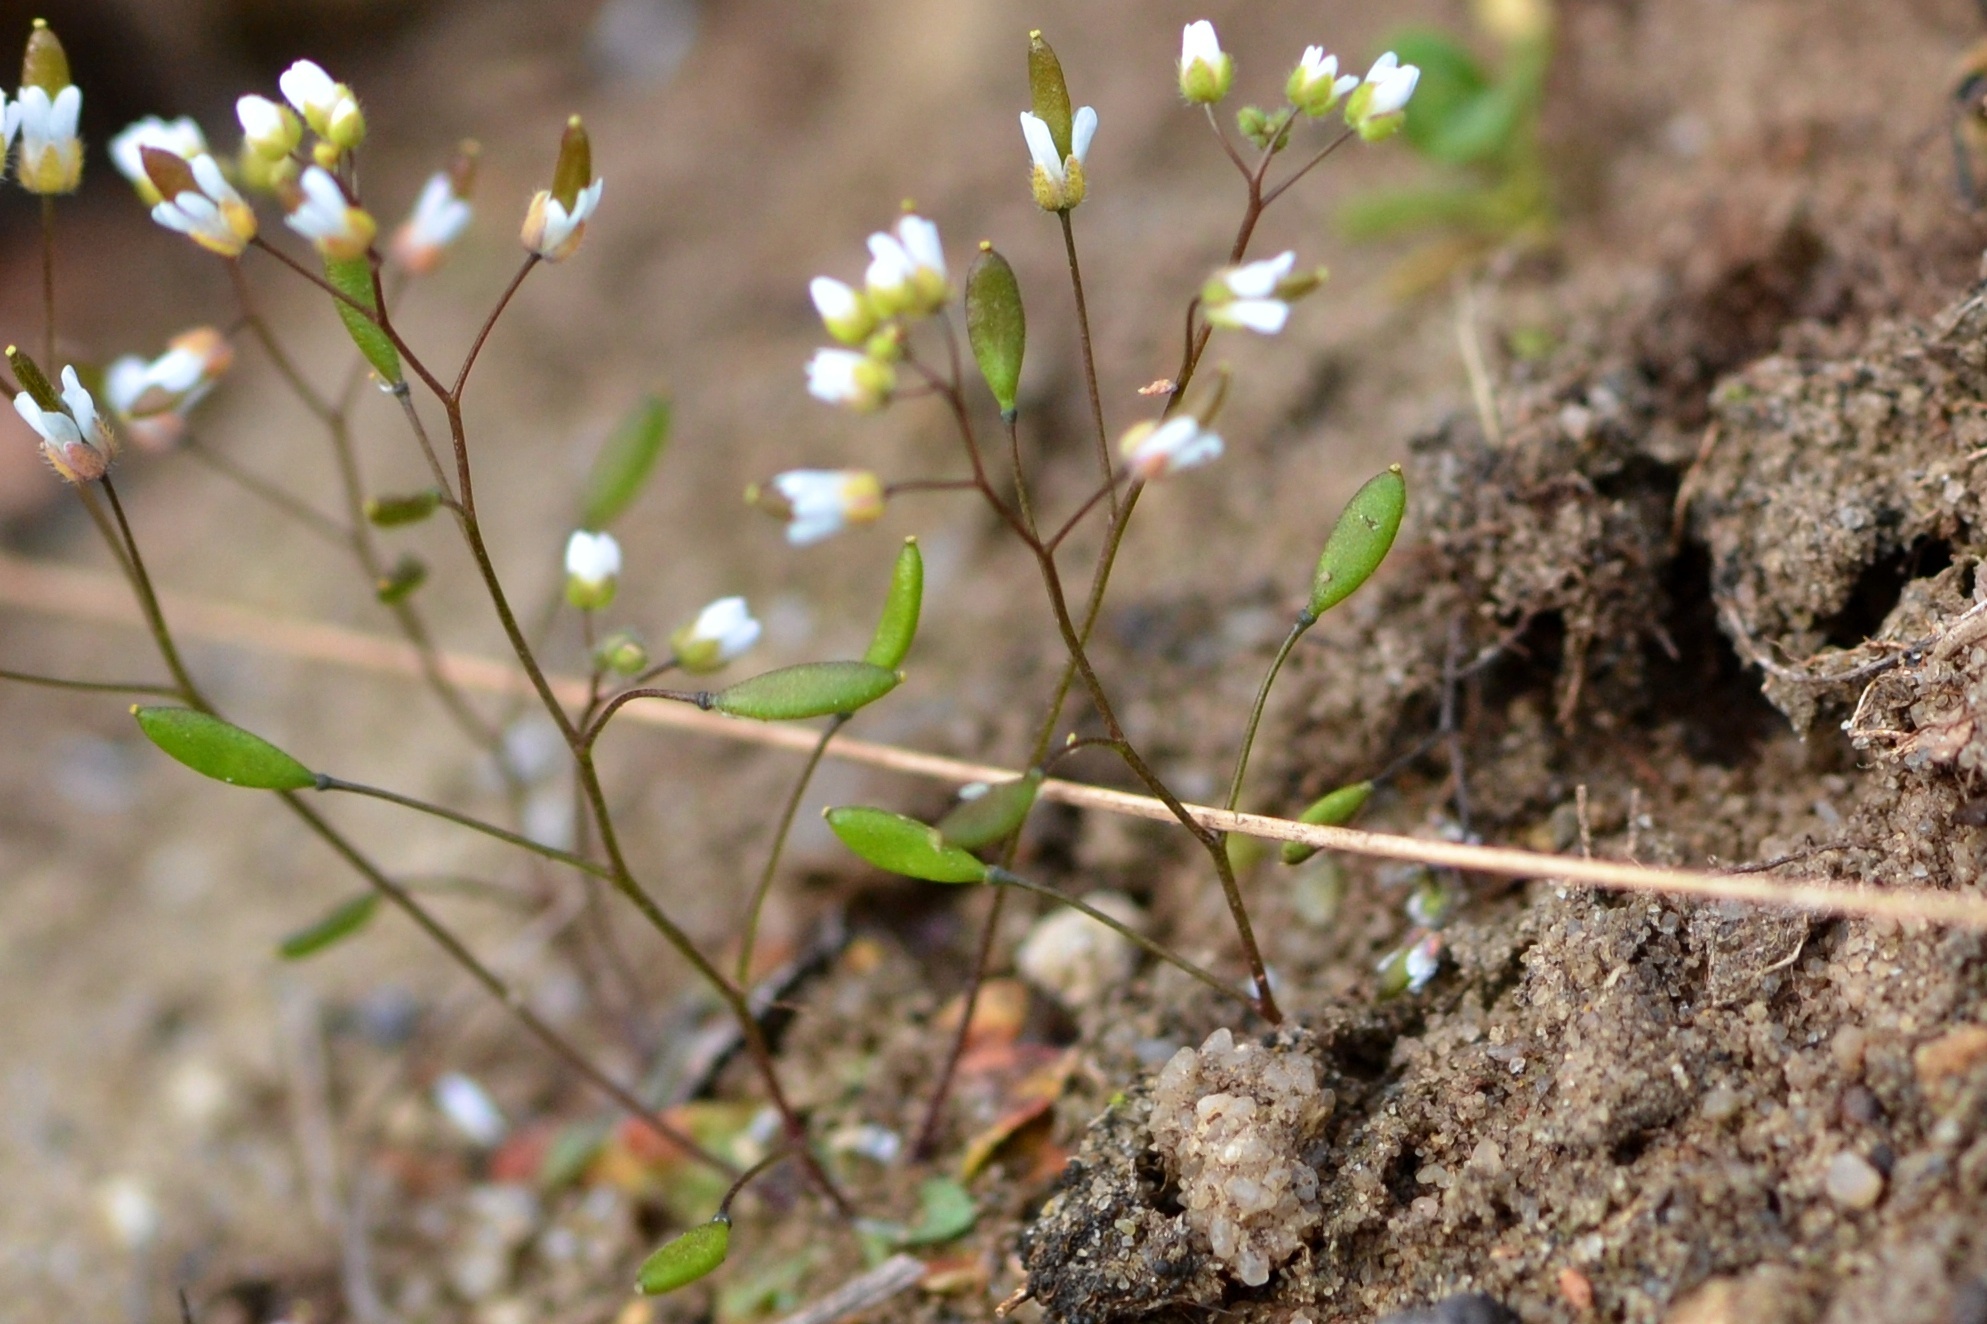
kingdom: Plantae
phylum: Tracheophyta
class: Magnoliopsida
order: Brassicales
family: Brassicaceae
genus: Draba
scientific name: Draba verna
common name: Spring draba
